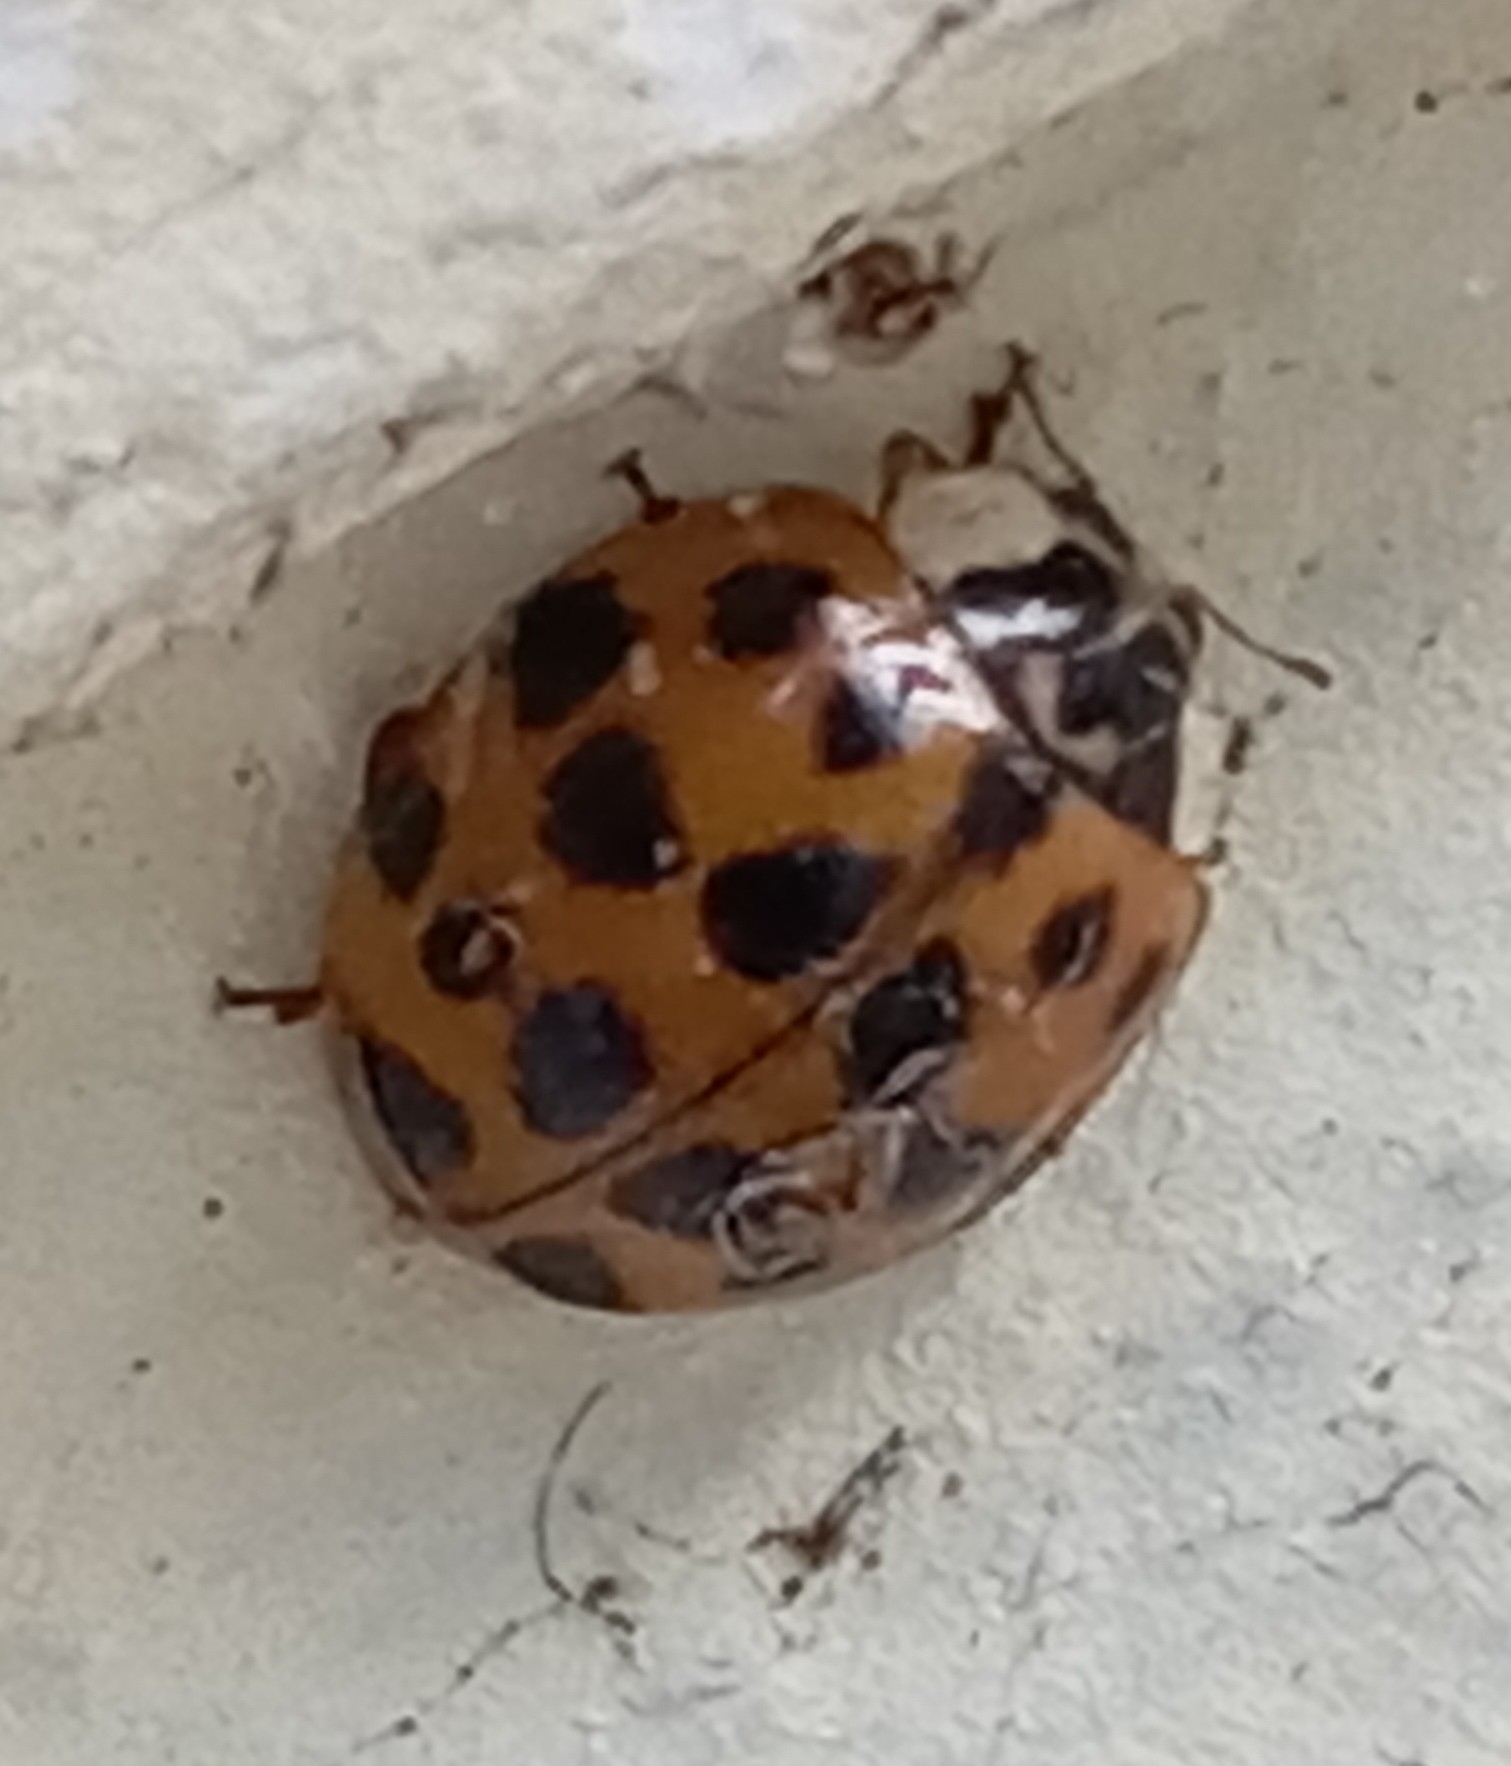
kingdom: Animalia
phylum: Arthropoda
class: Insecta
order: Coleoptera
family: Coccinellidae
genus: Harmonia
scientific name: Harmonia axyridis
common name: Harlequin ladybird
